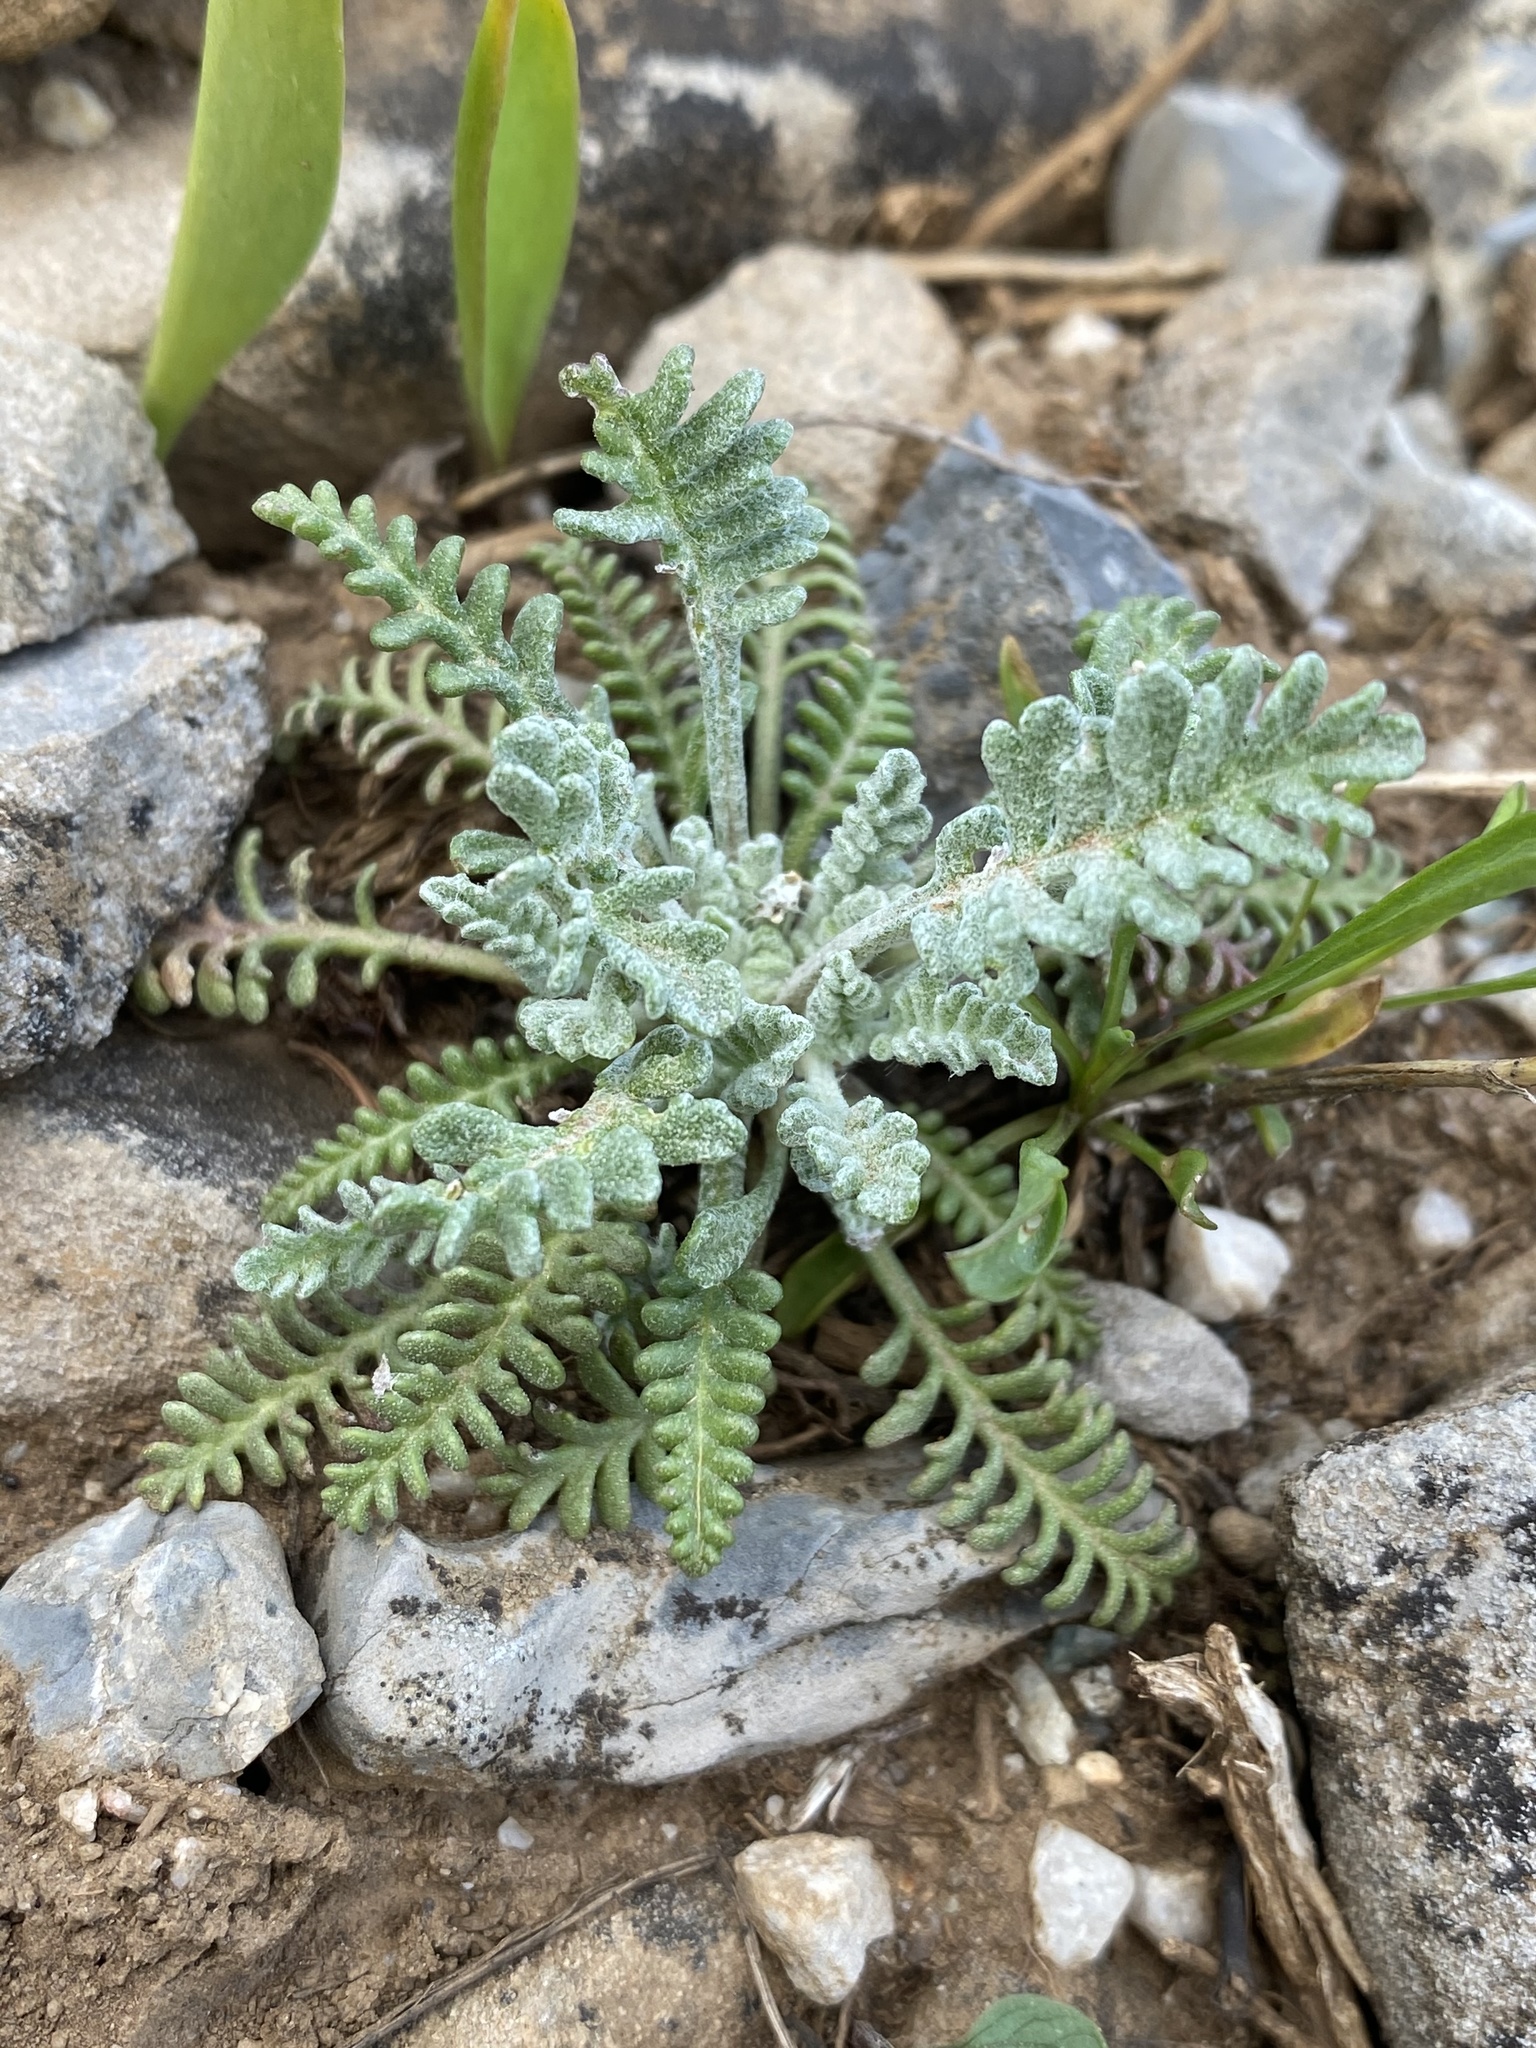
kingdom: Plantae
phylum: Tracheophyta
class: Magnoliopsida
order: Asterales
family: Asteraceae
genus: Chaenactis
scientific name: Chaenactis douglasii
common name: Hoary pincushion
